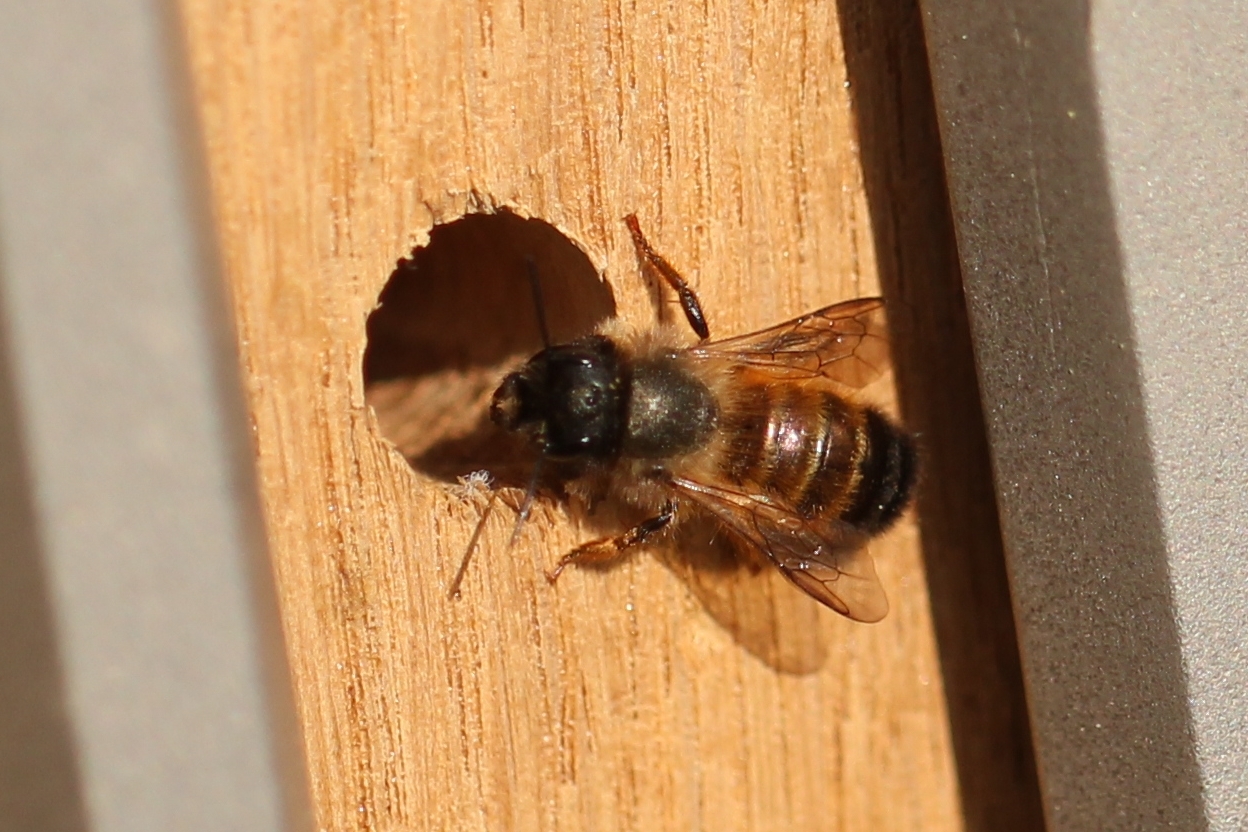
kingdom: Animalia
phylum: Arthropoda
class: Insecta
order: Hymenoptera
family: Megachilidae
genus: Osmia
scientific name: Osmia bicornis
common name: Red mason bee
